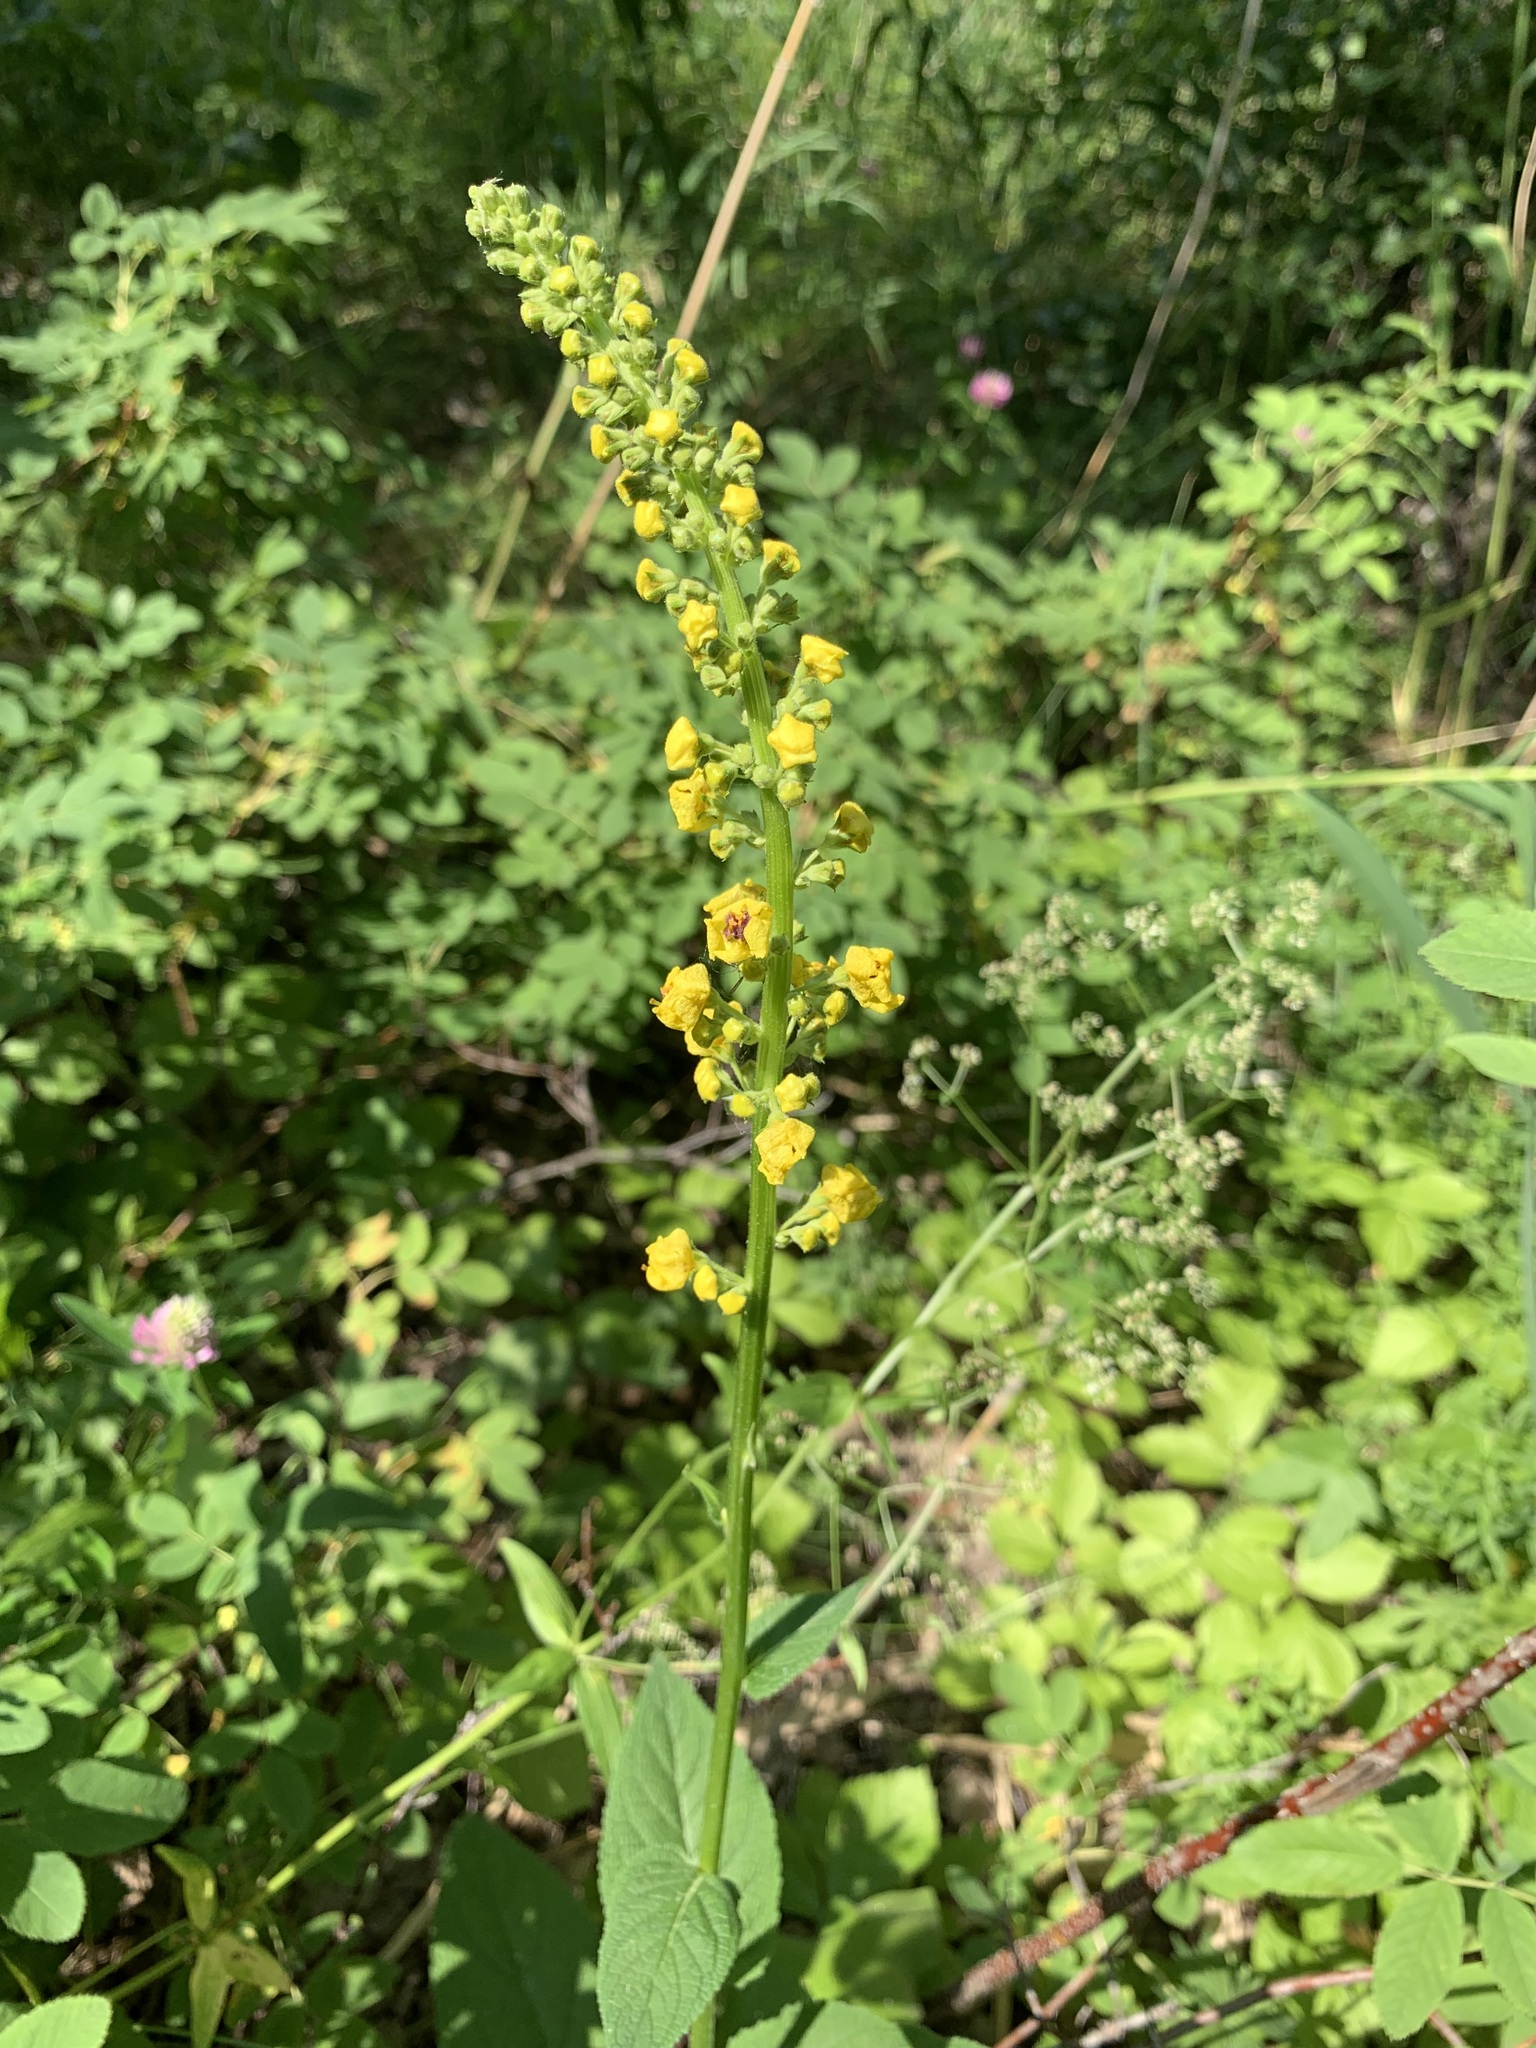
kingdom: Plantae
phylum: Tracheophyta
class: Magnoliopsida
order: Lamiales
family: Scrophulariaceae
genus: Verbascum
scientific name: Verbascum nigrum
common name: Dark mullein
